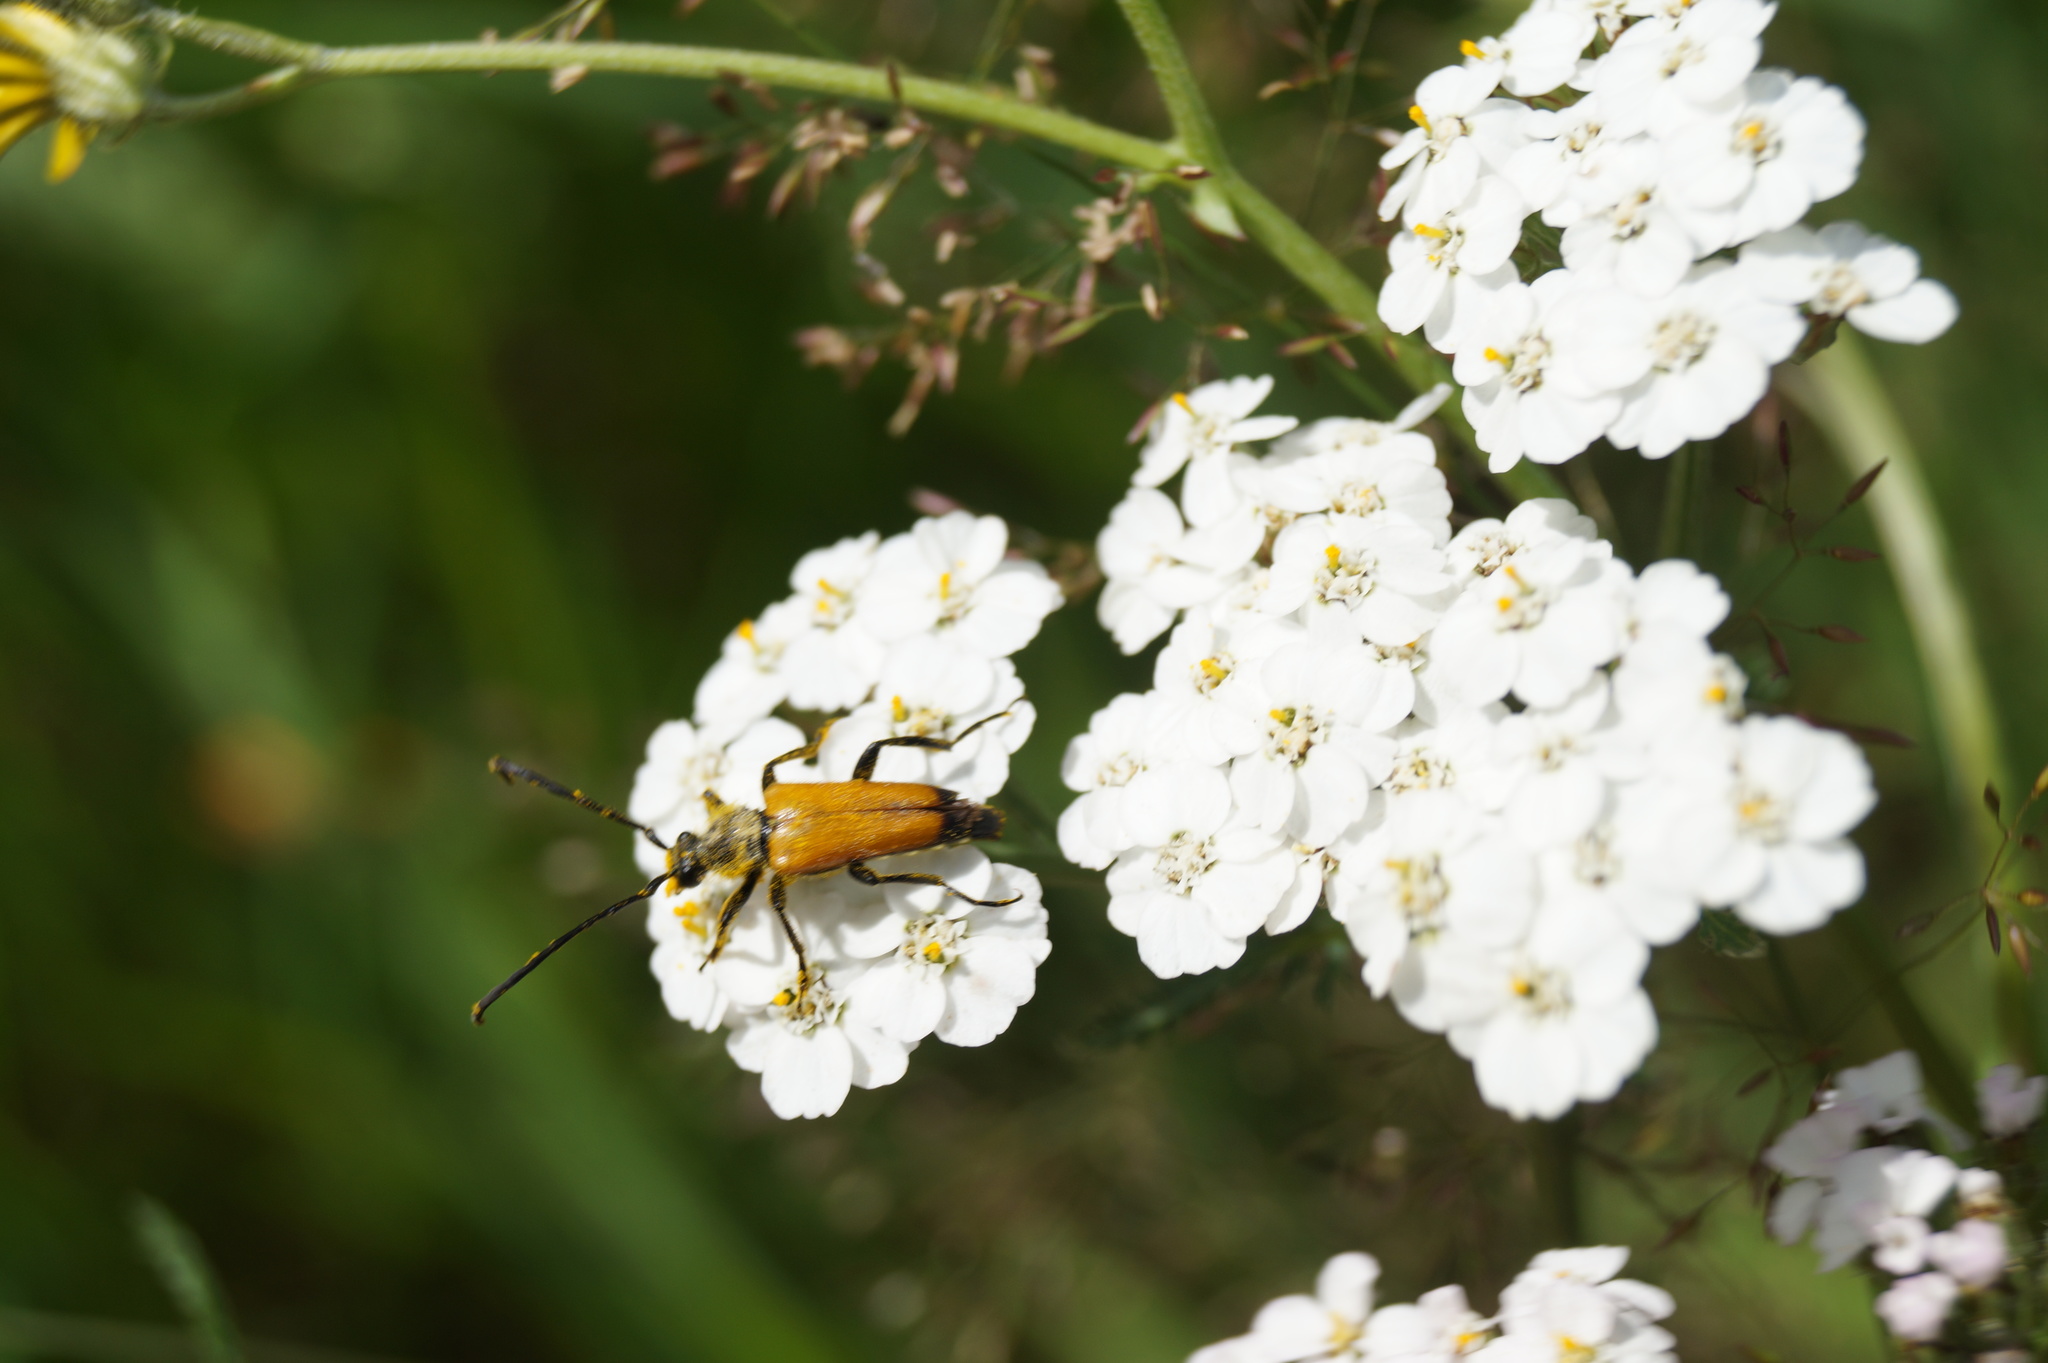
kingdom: Animalia
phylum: Arthropoda
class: Insecta
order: Coleoptera
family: Cerambycidae
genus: Paracorymbia
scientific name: Paracorymbia fulva
